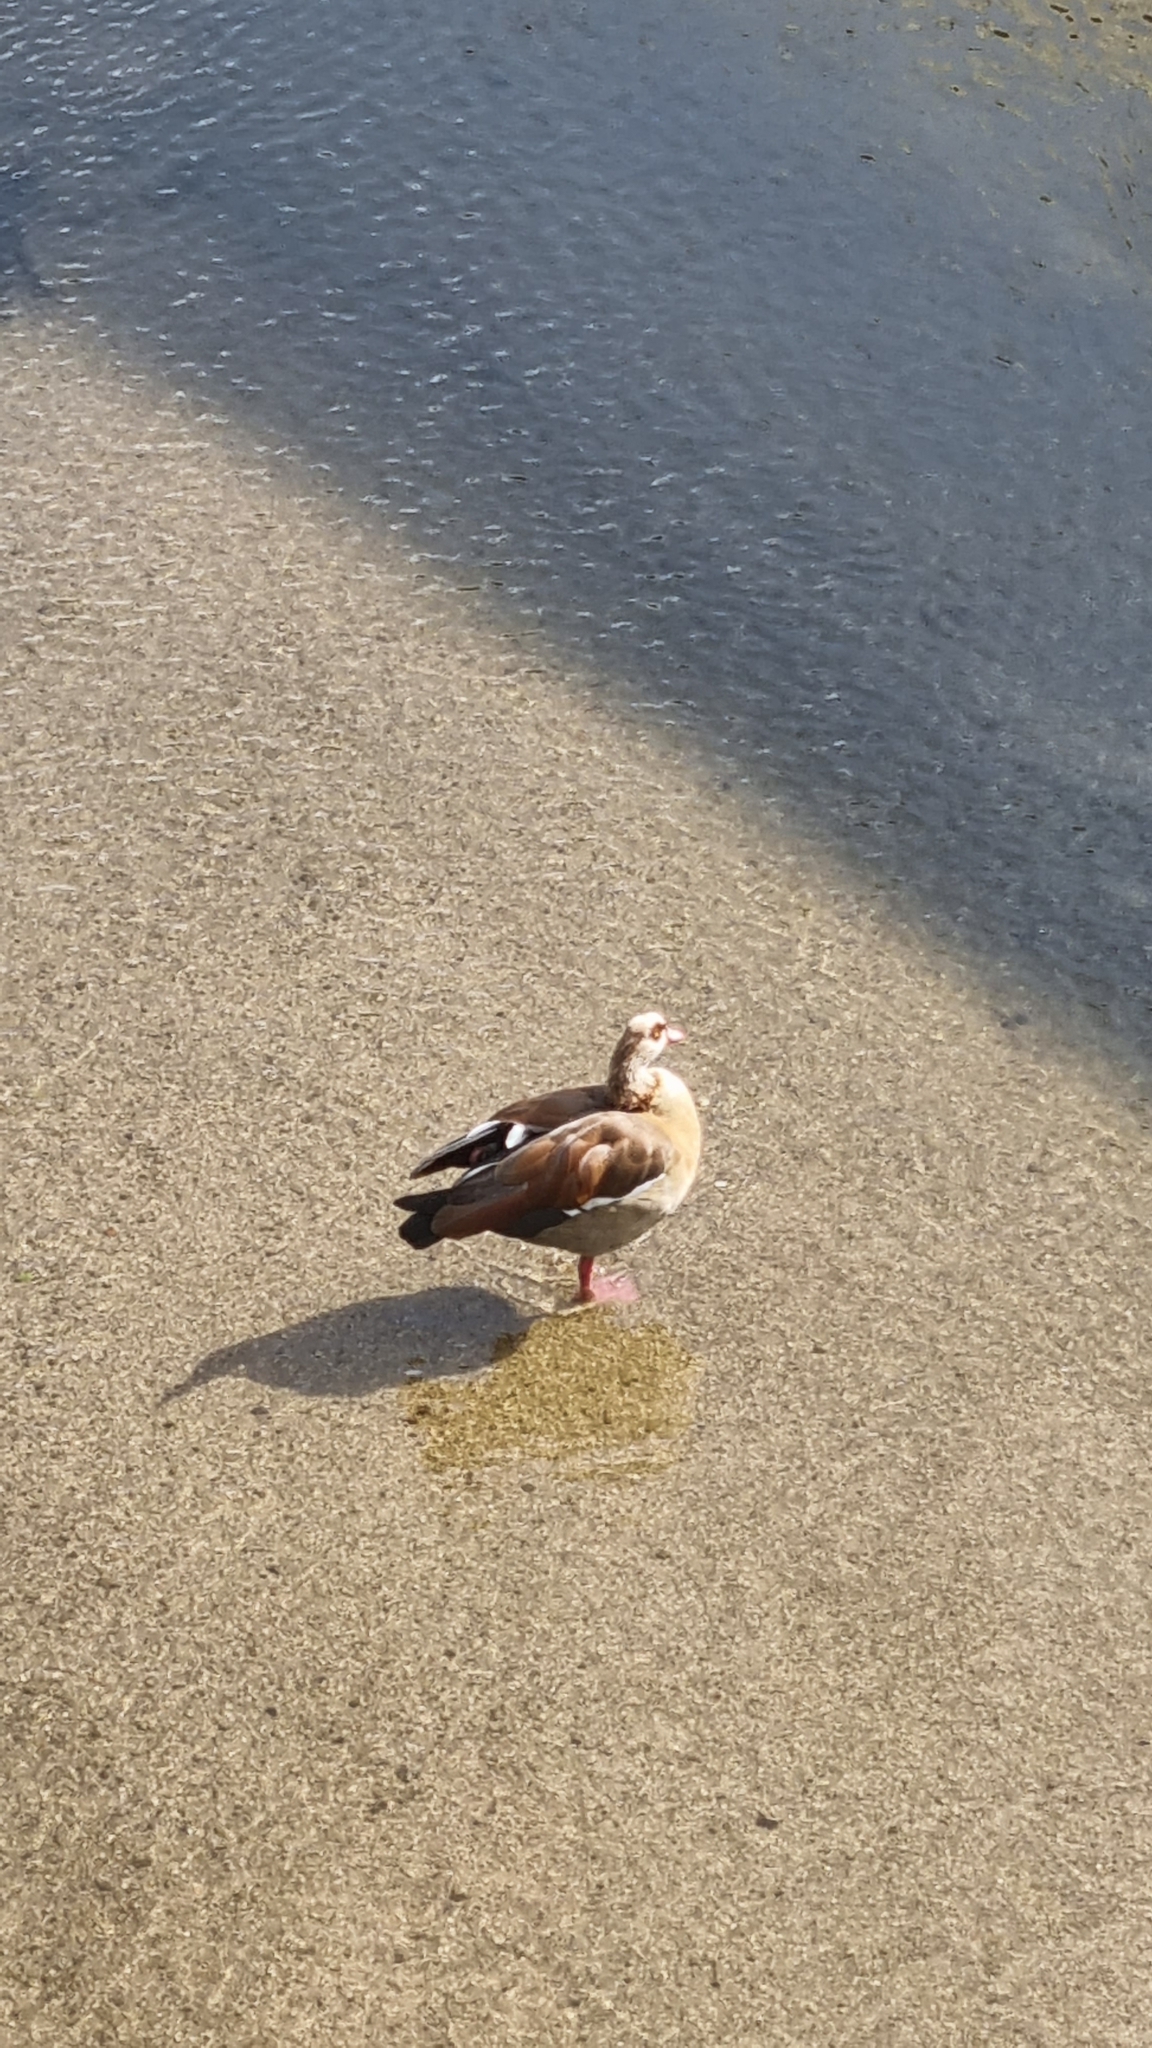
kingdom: Animalia
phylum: Chordata
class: Aves
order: Anseriformes
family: Anatidae
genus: Alopochen
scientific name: Alopochen aegyptiaca
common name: Egyptian goose
